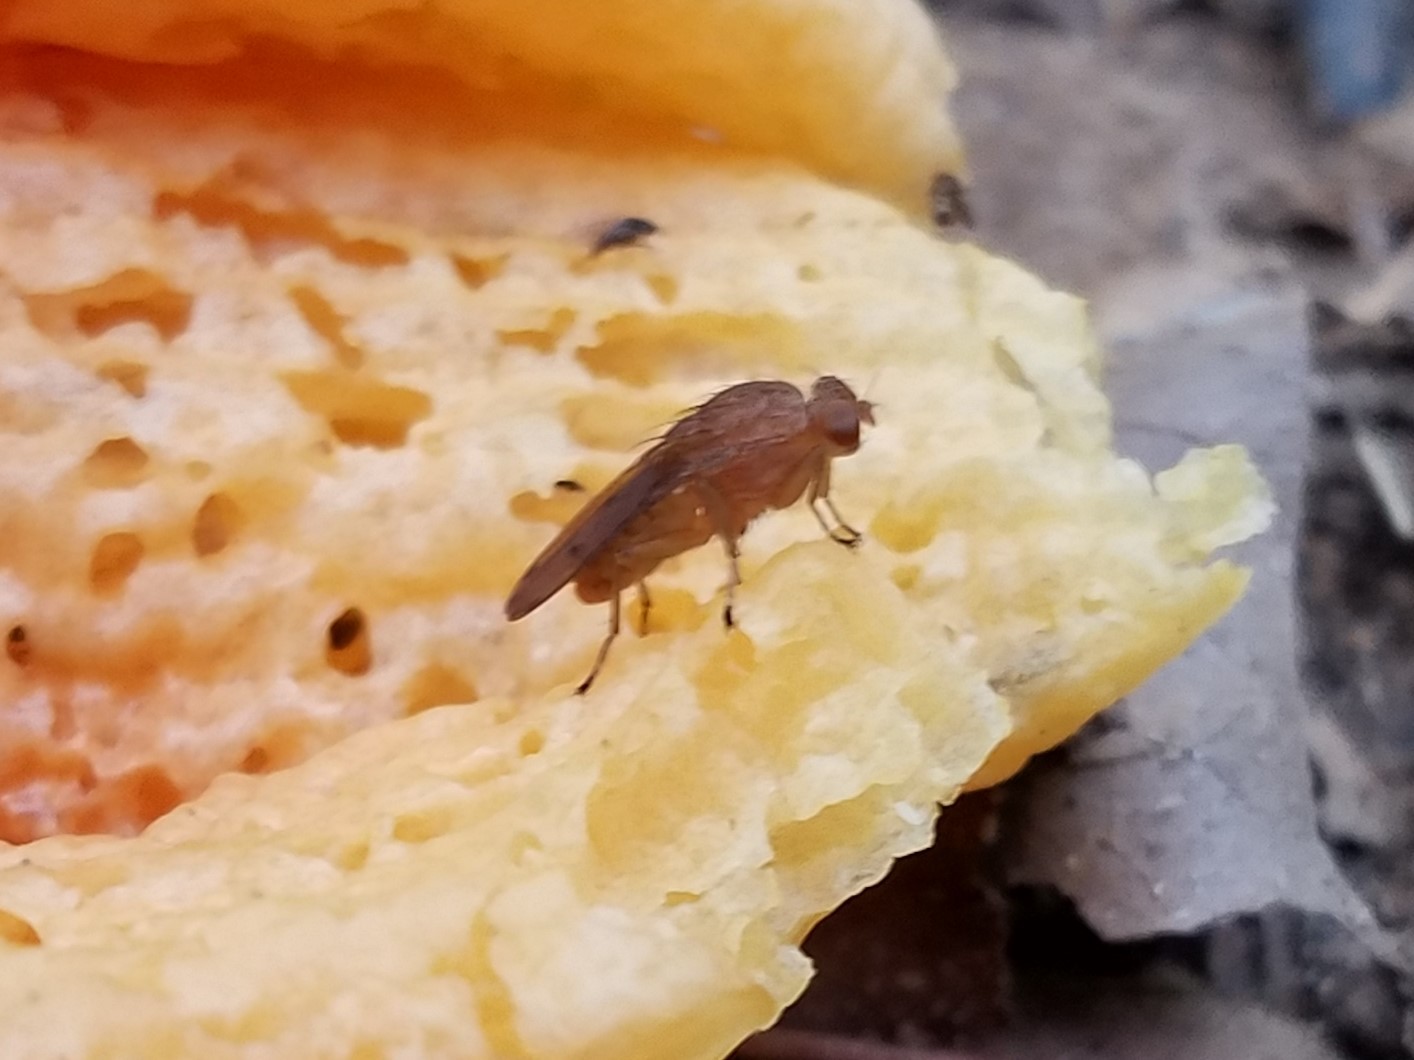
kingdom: Animalia
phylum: Arthropoda
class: Insecta
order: Diptera
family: Heleomyzidae
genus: Suillia
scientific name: Suillia quinquepunctata
